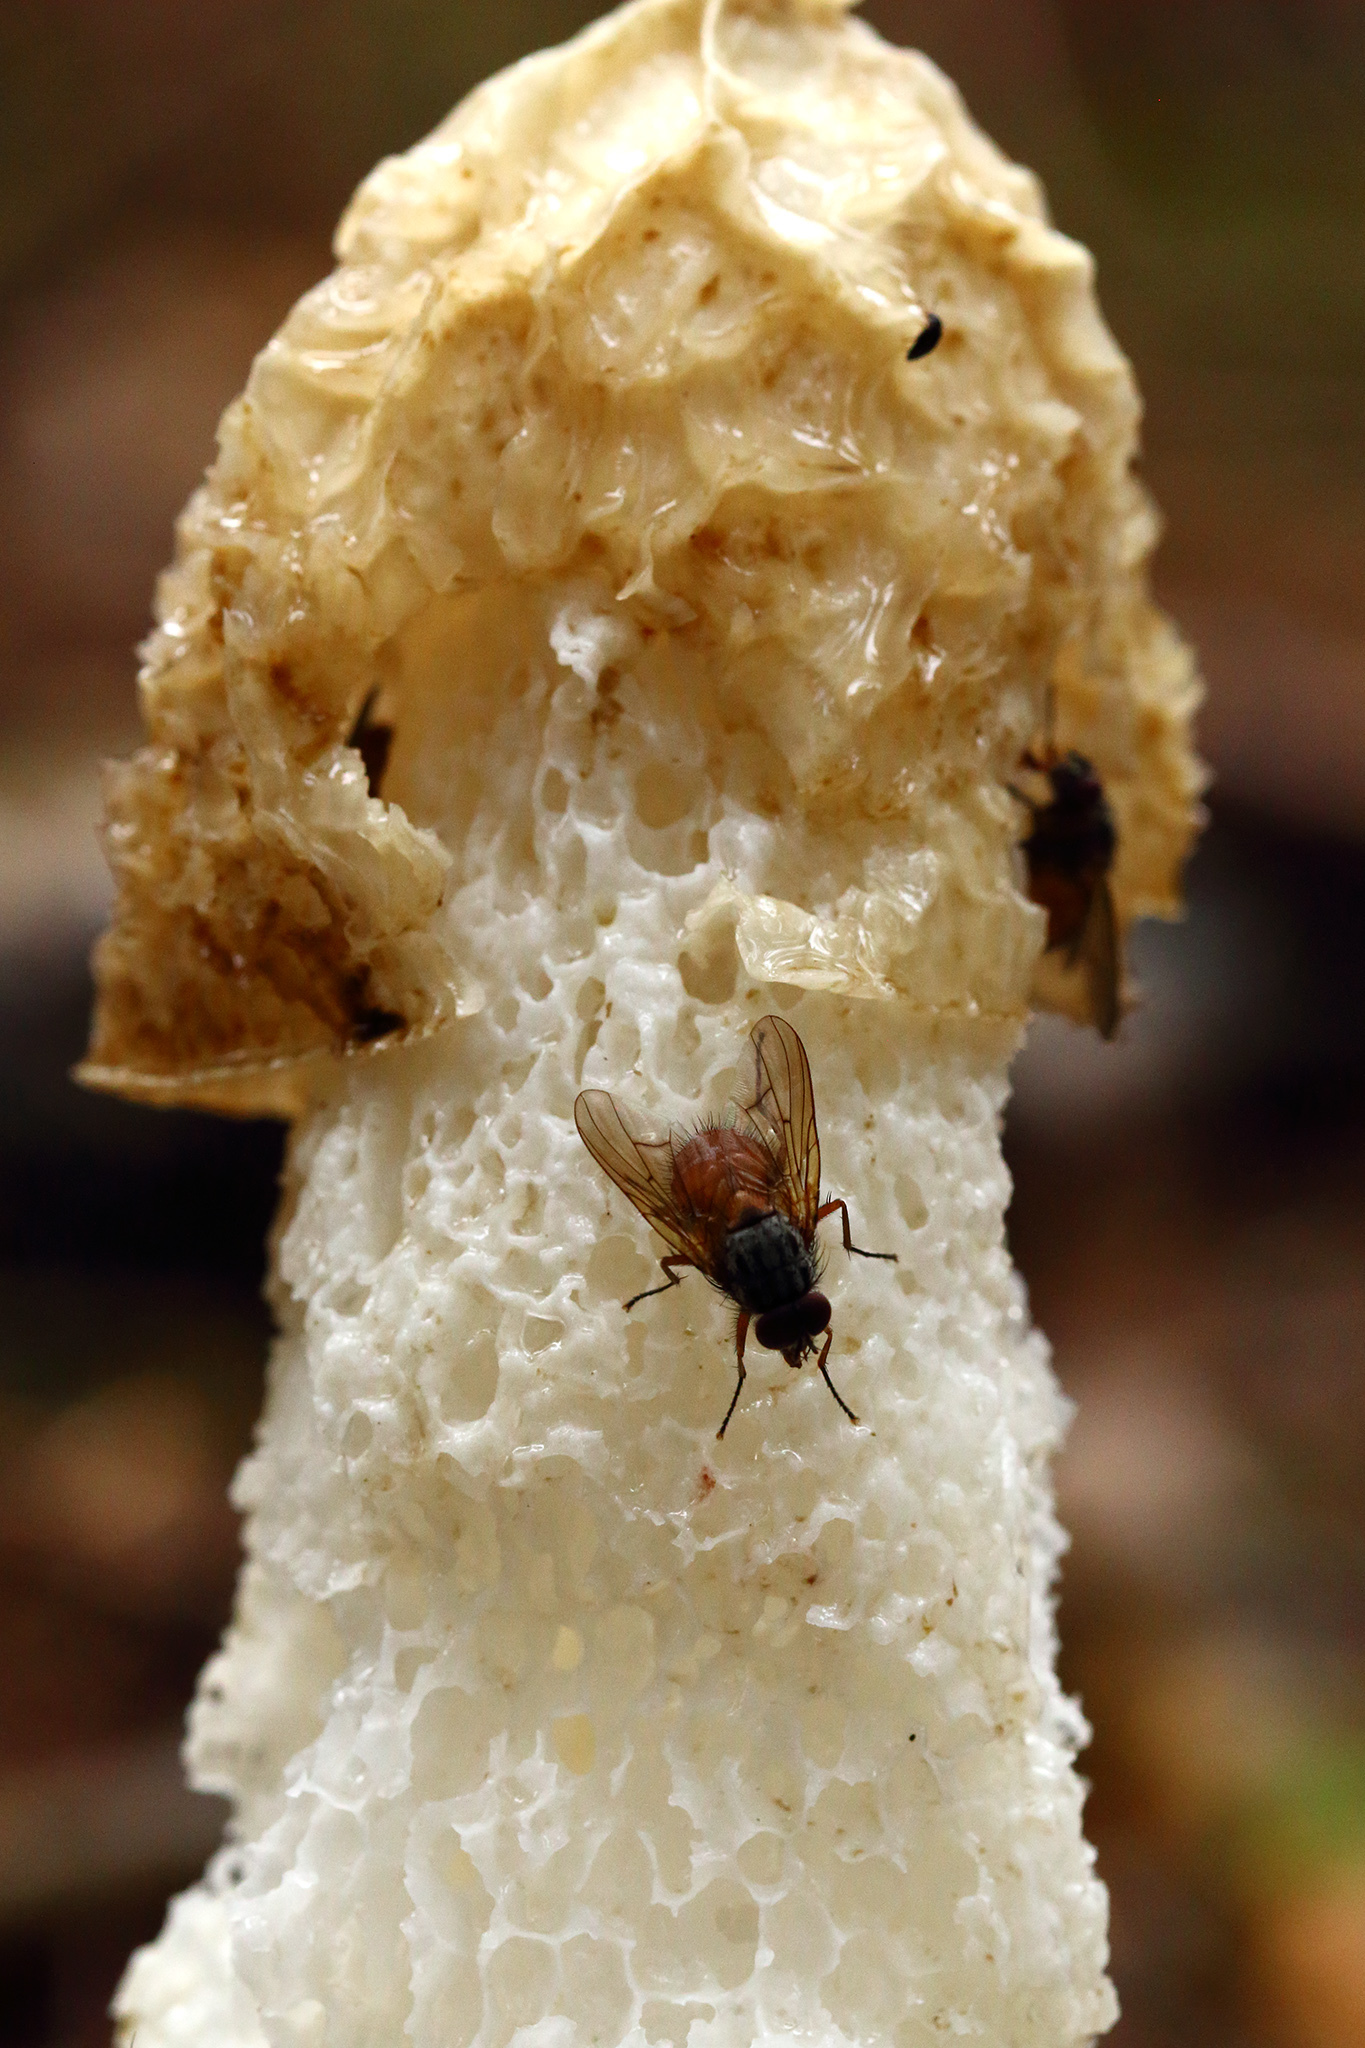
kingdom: Fungi
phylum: Basidiomycota
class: Agaricomycetes
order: Phallales
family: Phallaceae
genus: Phallus
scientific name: Phallus impudicus
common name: Common stinkhorn
